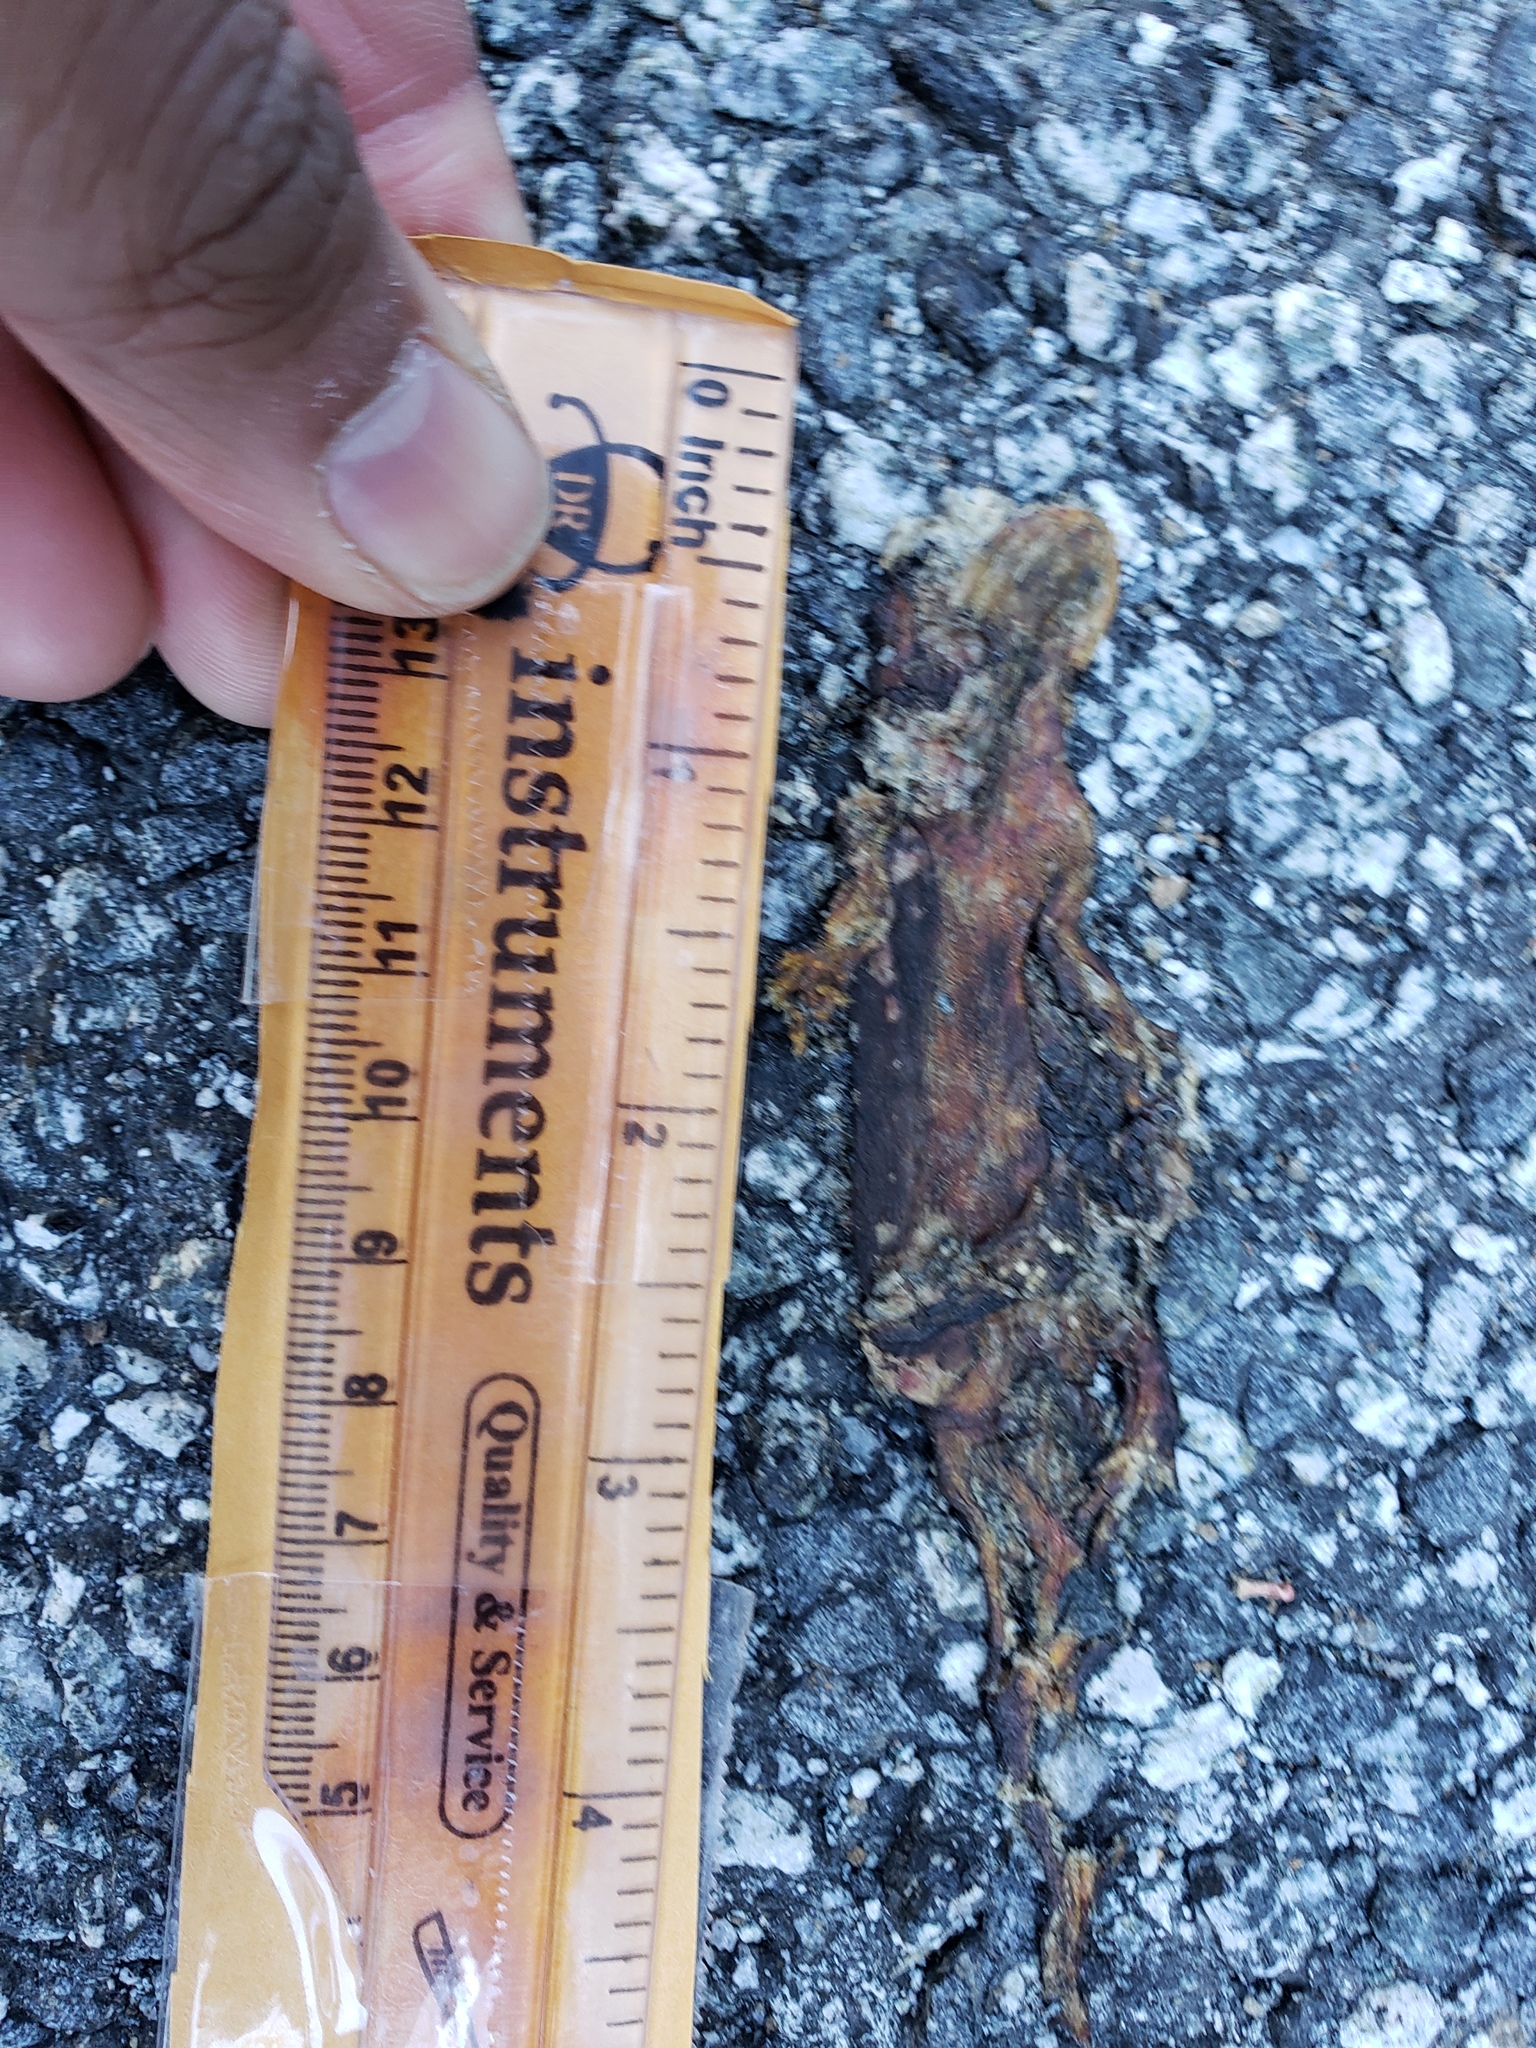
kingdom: Animalia
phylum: Chordata
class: Amphibia
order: Caudata
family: Salamandridae
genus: Taricha
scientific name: Taricha
